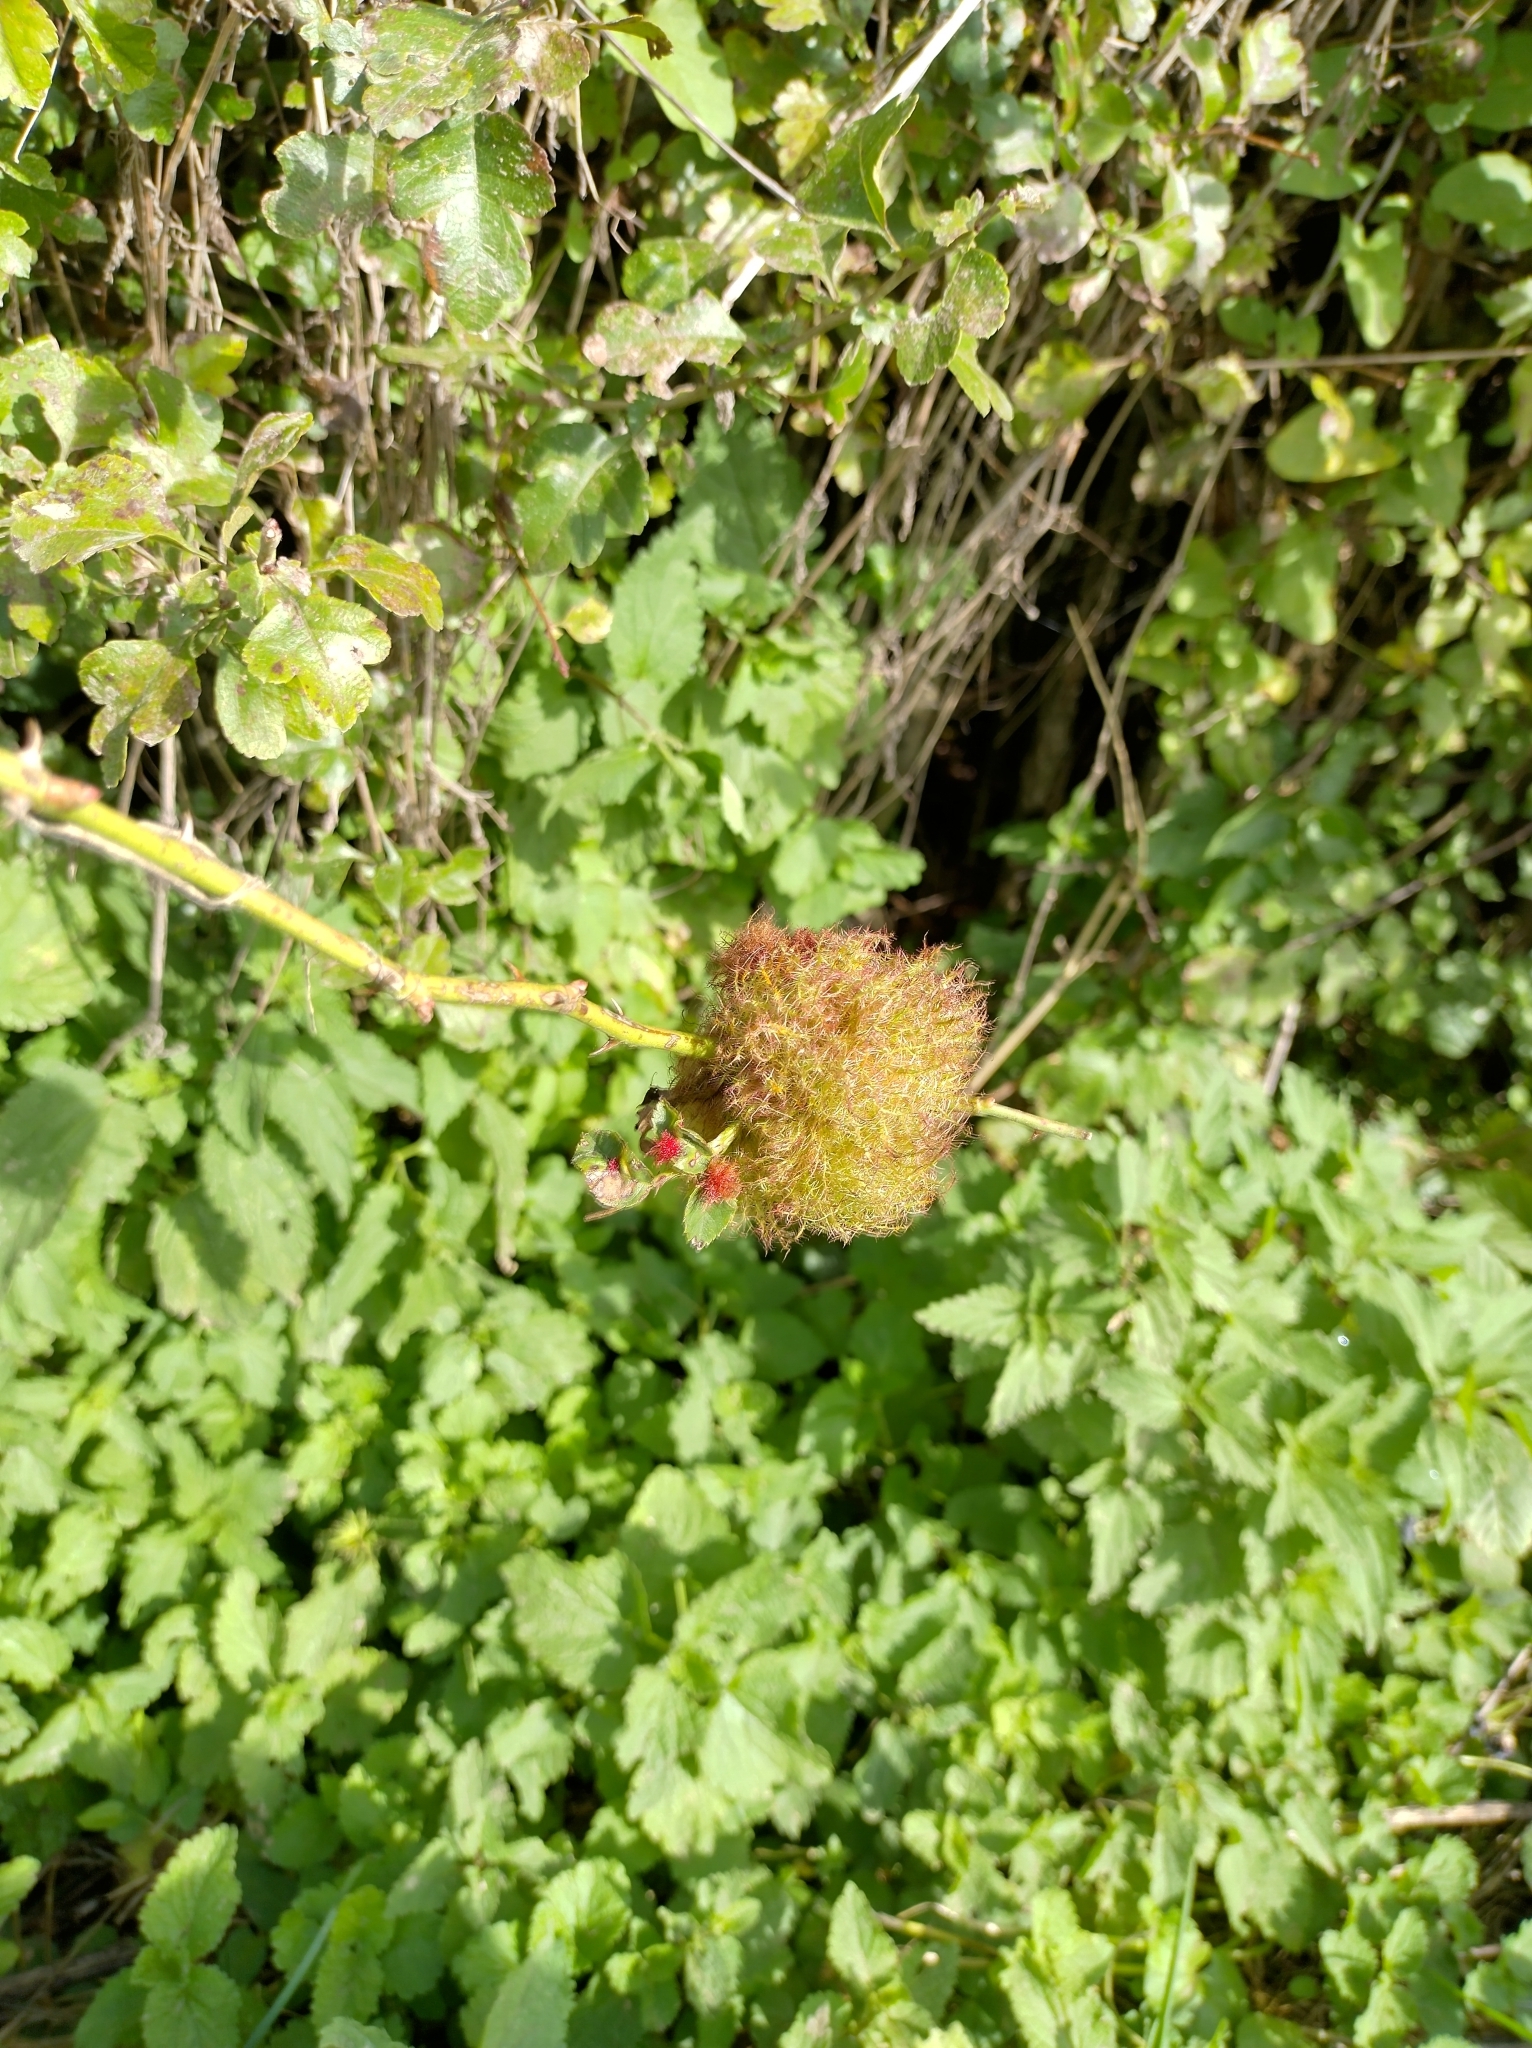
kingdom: Animalia
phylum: Arthropoda
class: Insecta
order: Hymenoptera
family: Cynipidae
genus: Diplolepis
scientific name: Diplolepis rosae
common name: Bedeguar gall
